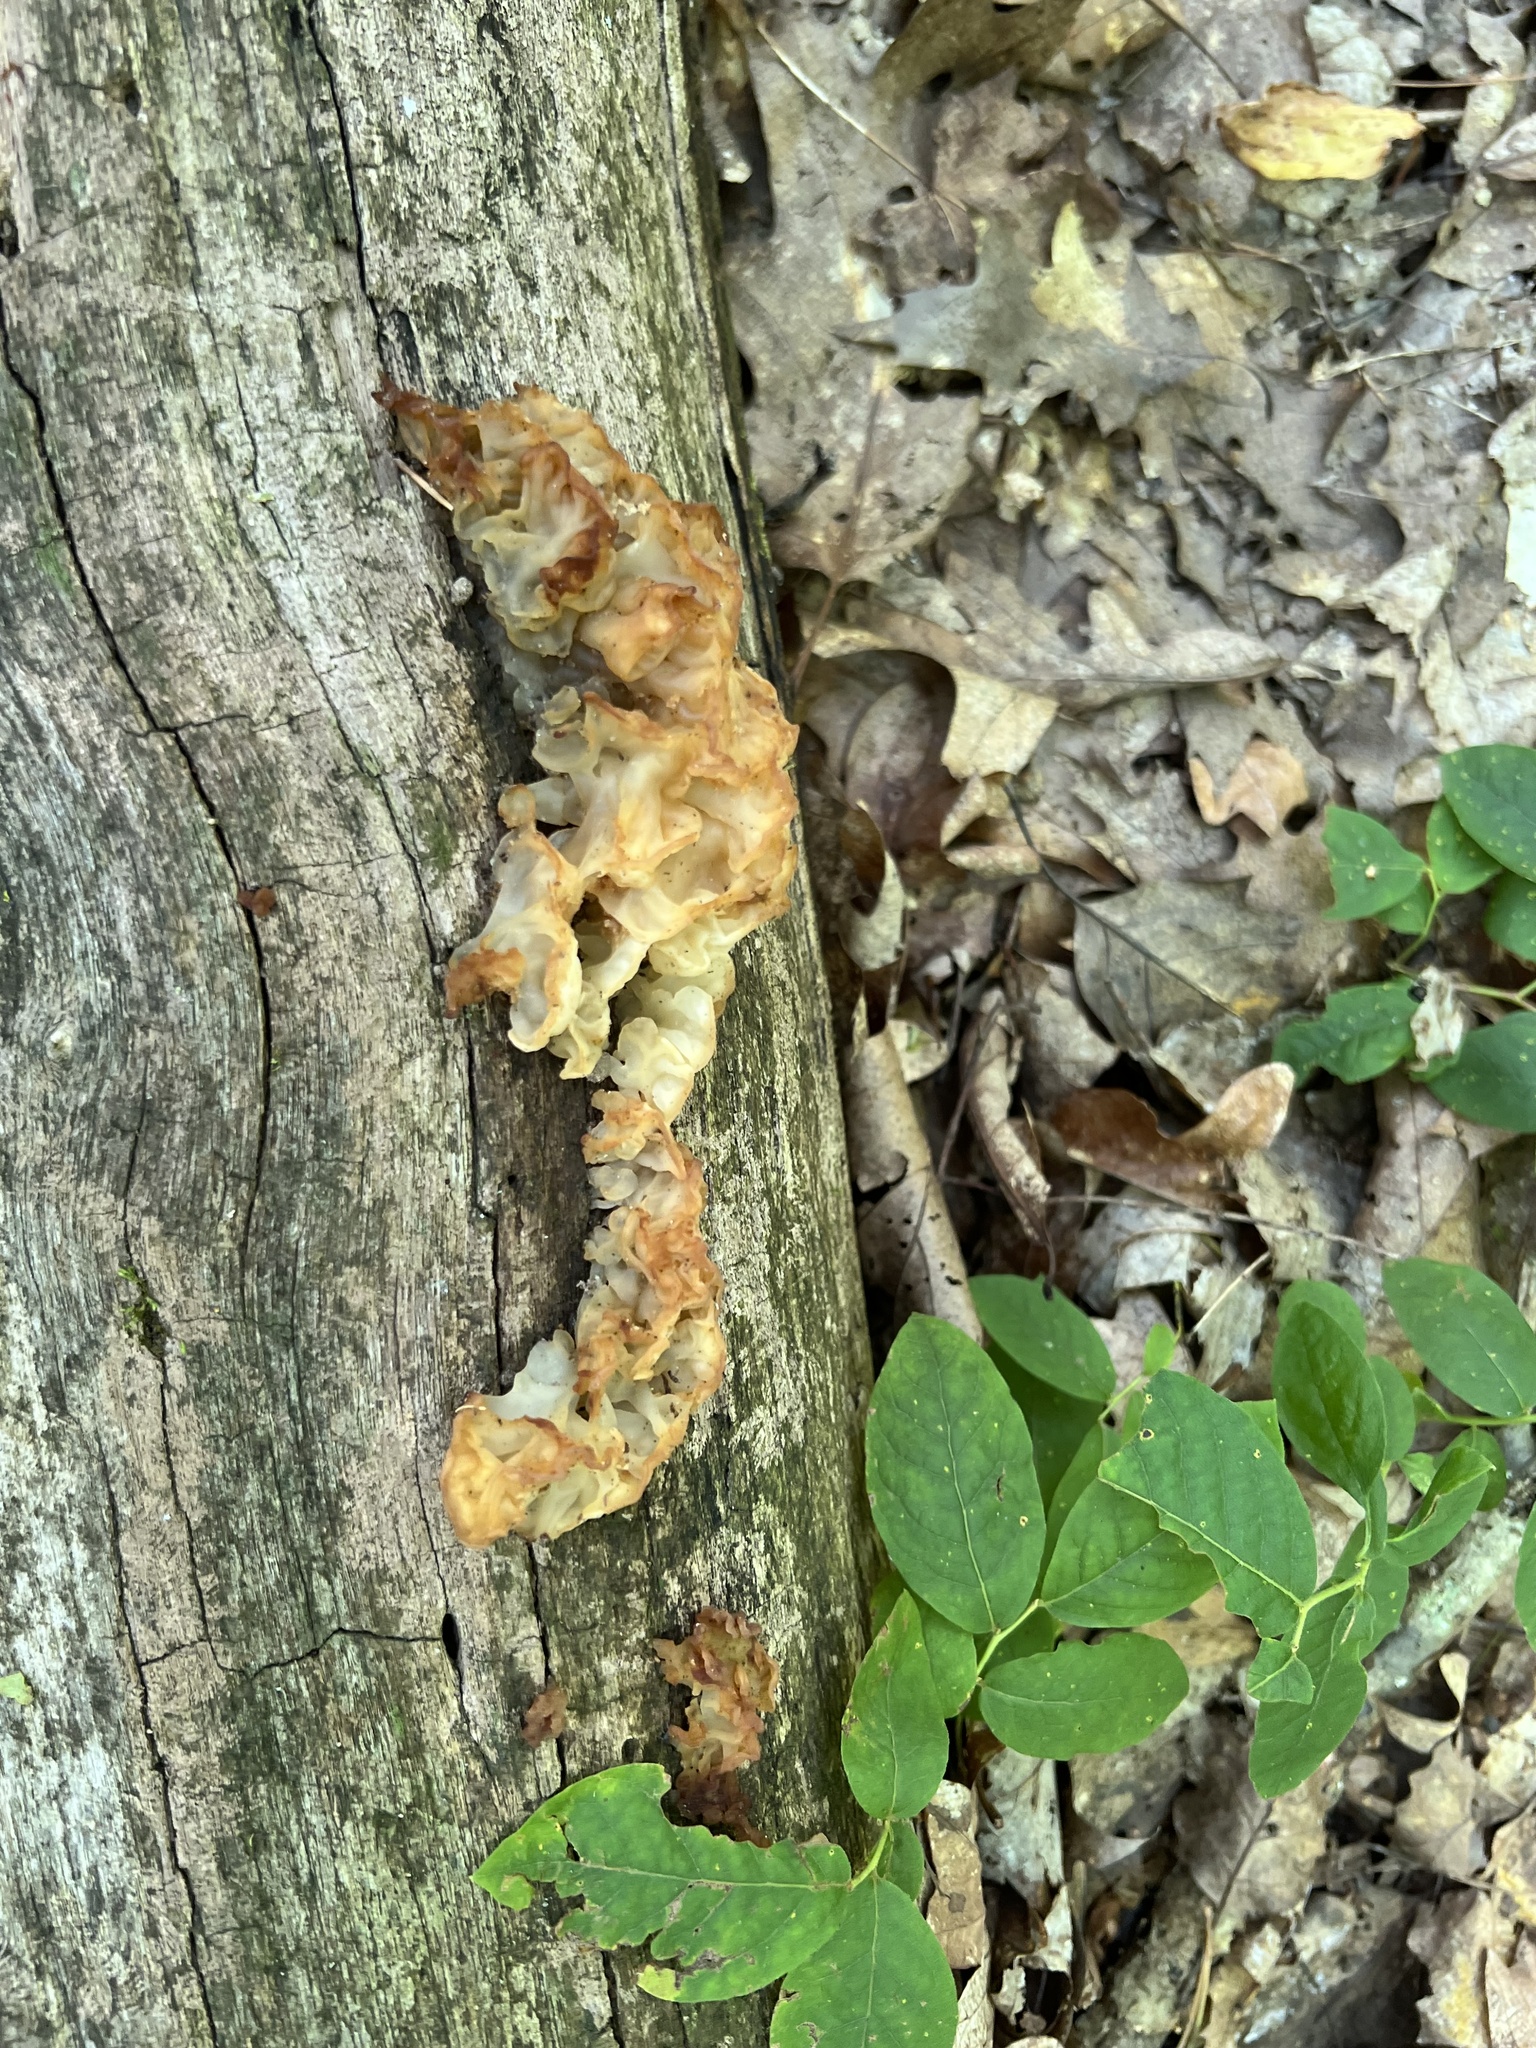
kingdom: Fungi
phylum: Basidiomycota
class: Agaricomycetes
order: Auriculariales
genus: Ductifera
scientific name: Ductifera pululahuana
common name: White jelly fungus
